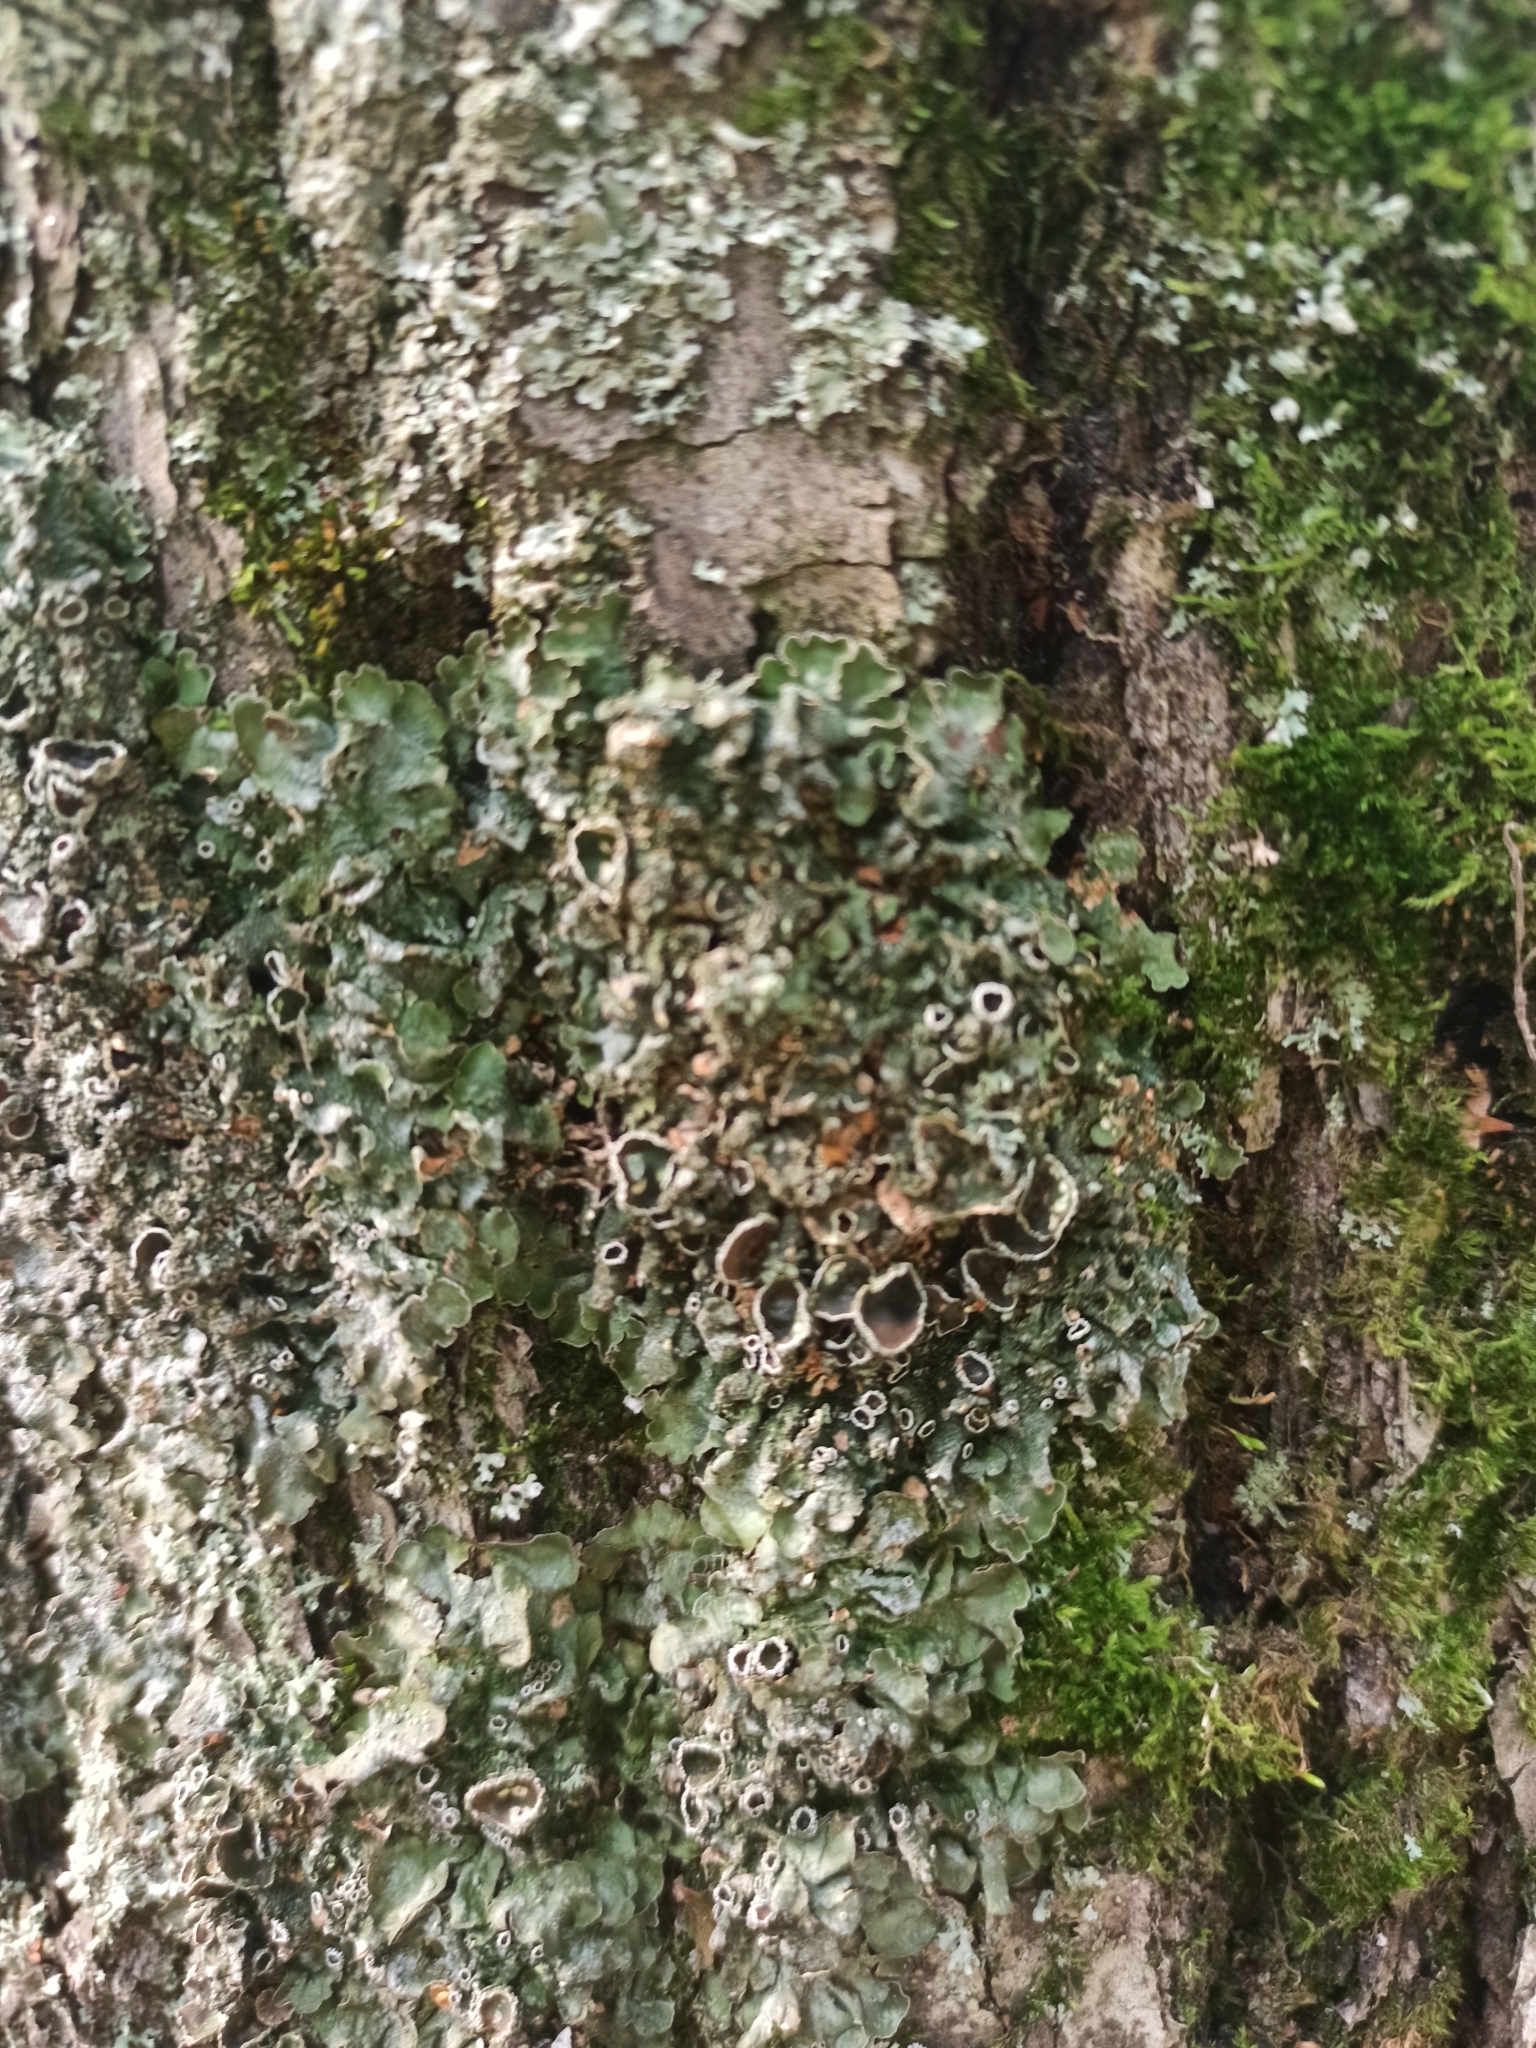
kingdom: Fungi
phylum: Ascomycota
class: Lecanoromycetes
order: Lecanorales
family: Parmeliaceae
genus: Pleurosticta
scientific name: Pleurosticta acetabulum
